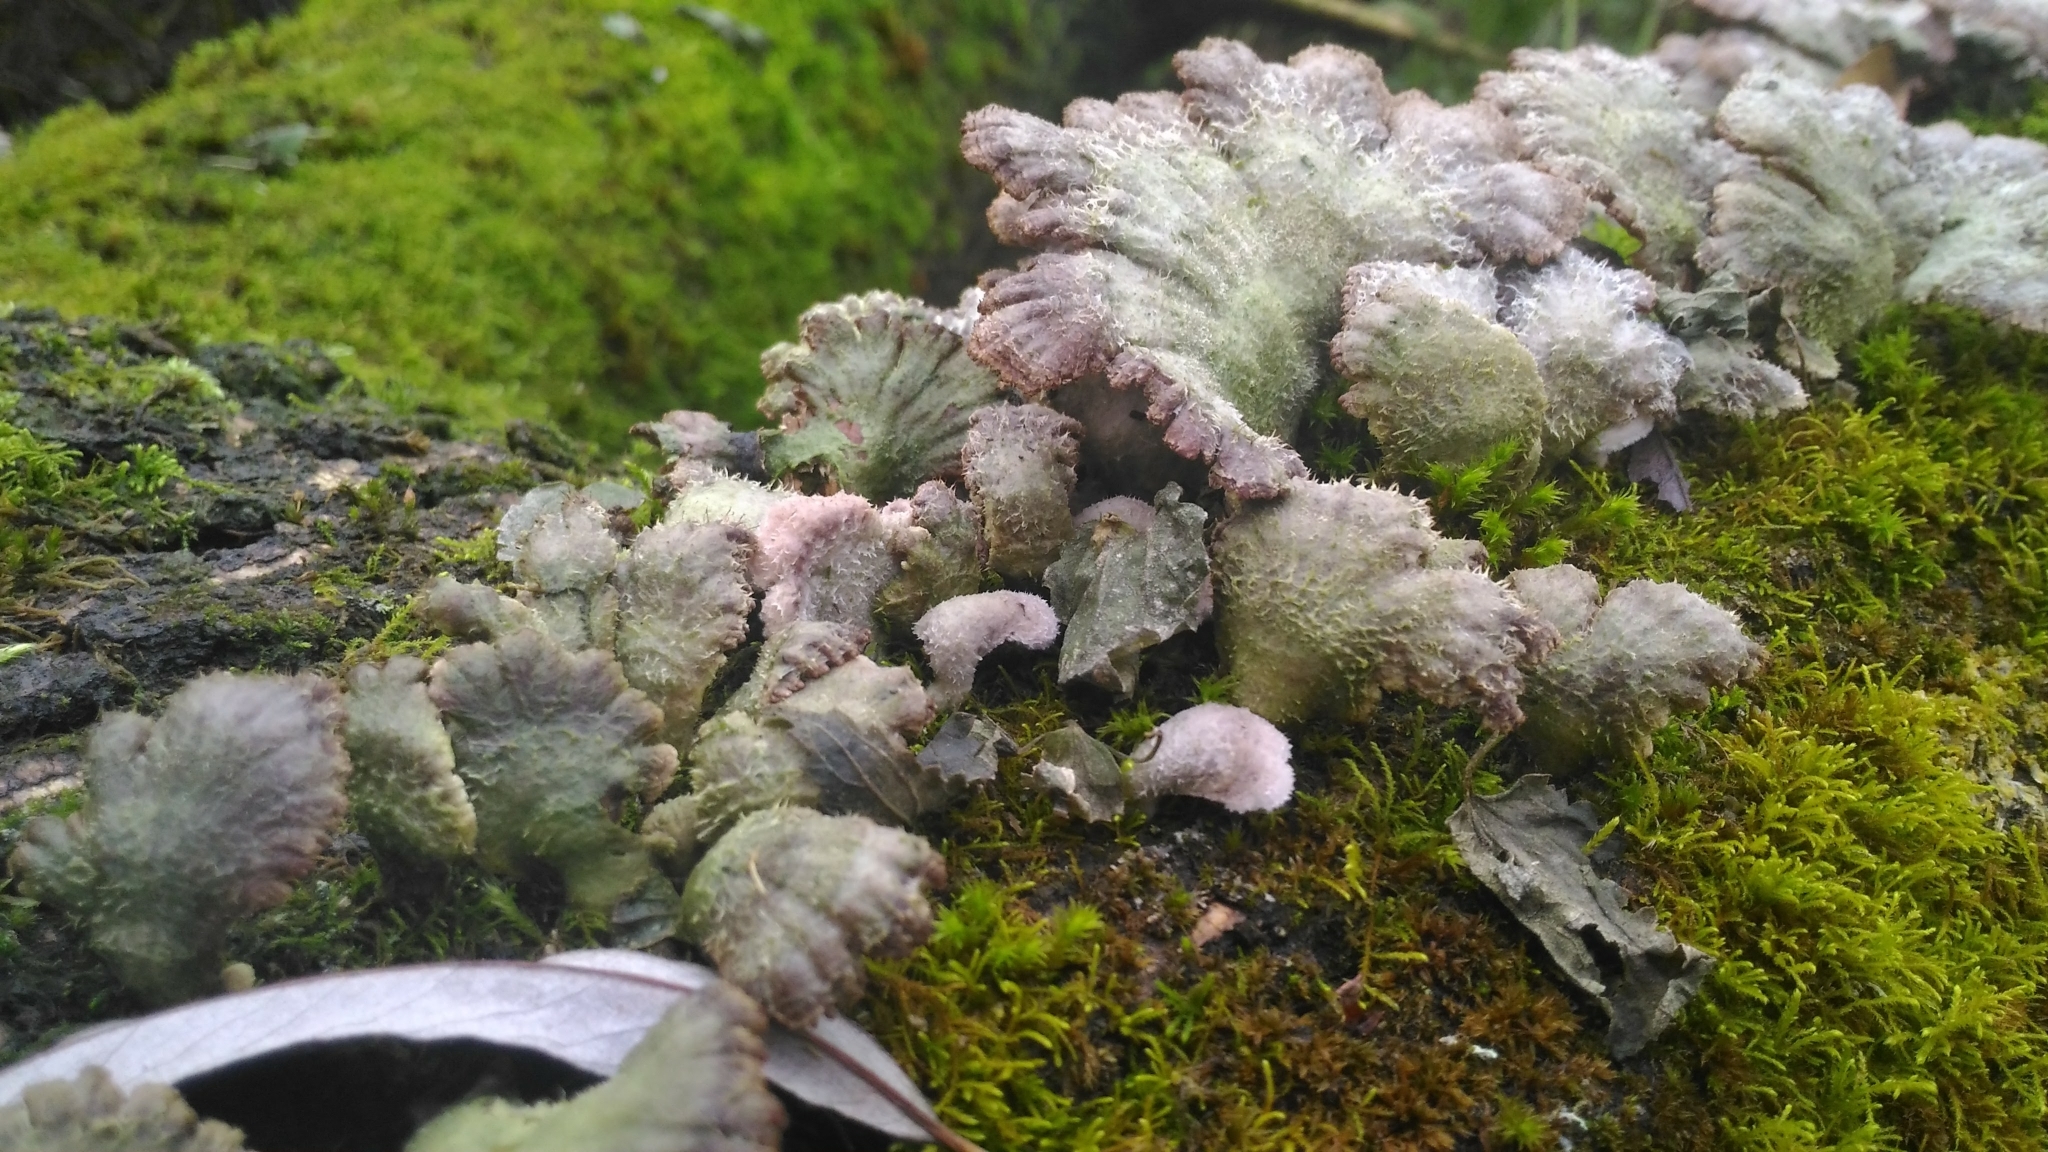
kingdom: Fungi
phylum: Basidiomycota
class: Agaricomycetes
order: Agaricales
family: Schizophyllaceae
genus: Schizophyllum
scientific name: Schizophyllum commune
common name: Common porecrust
